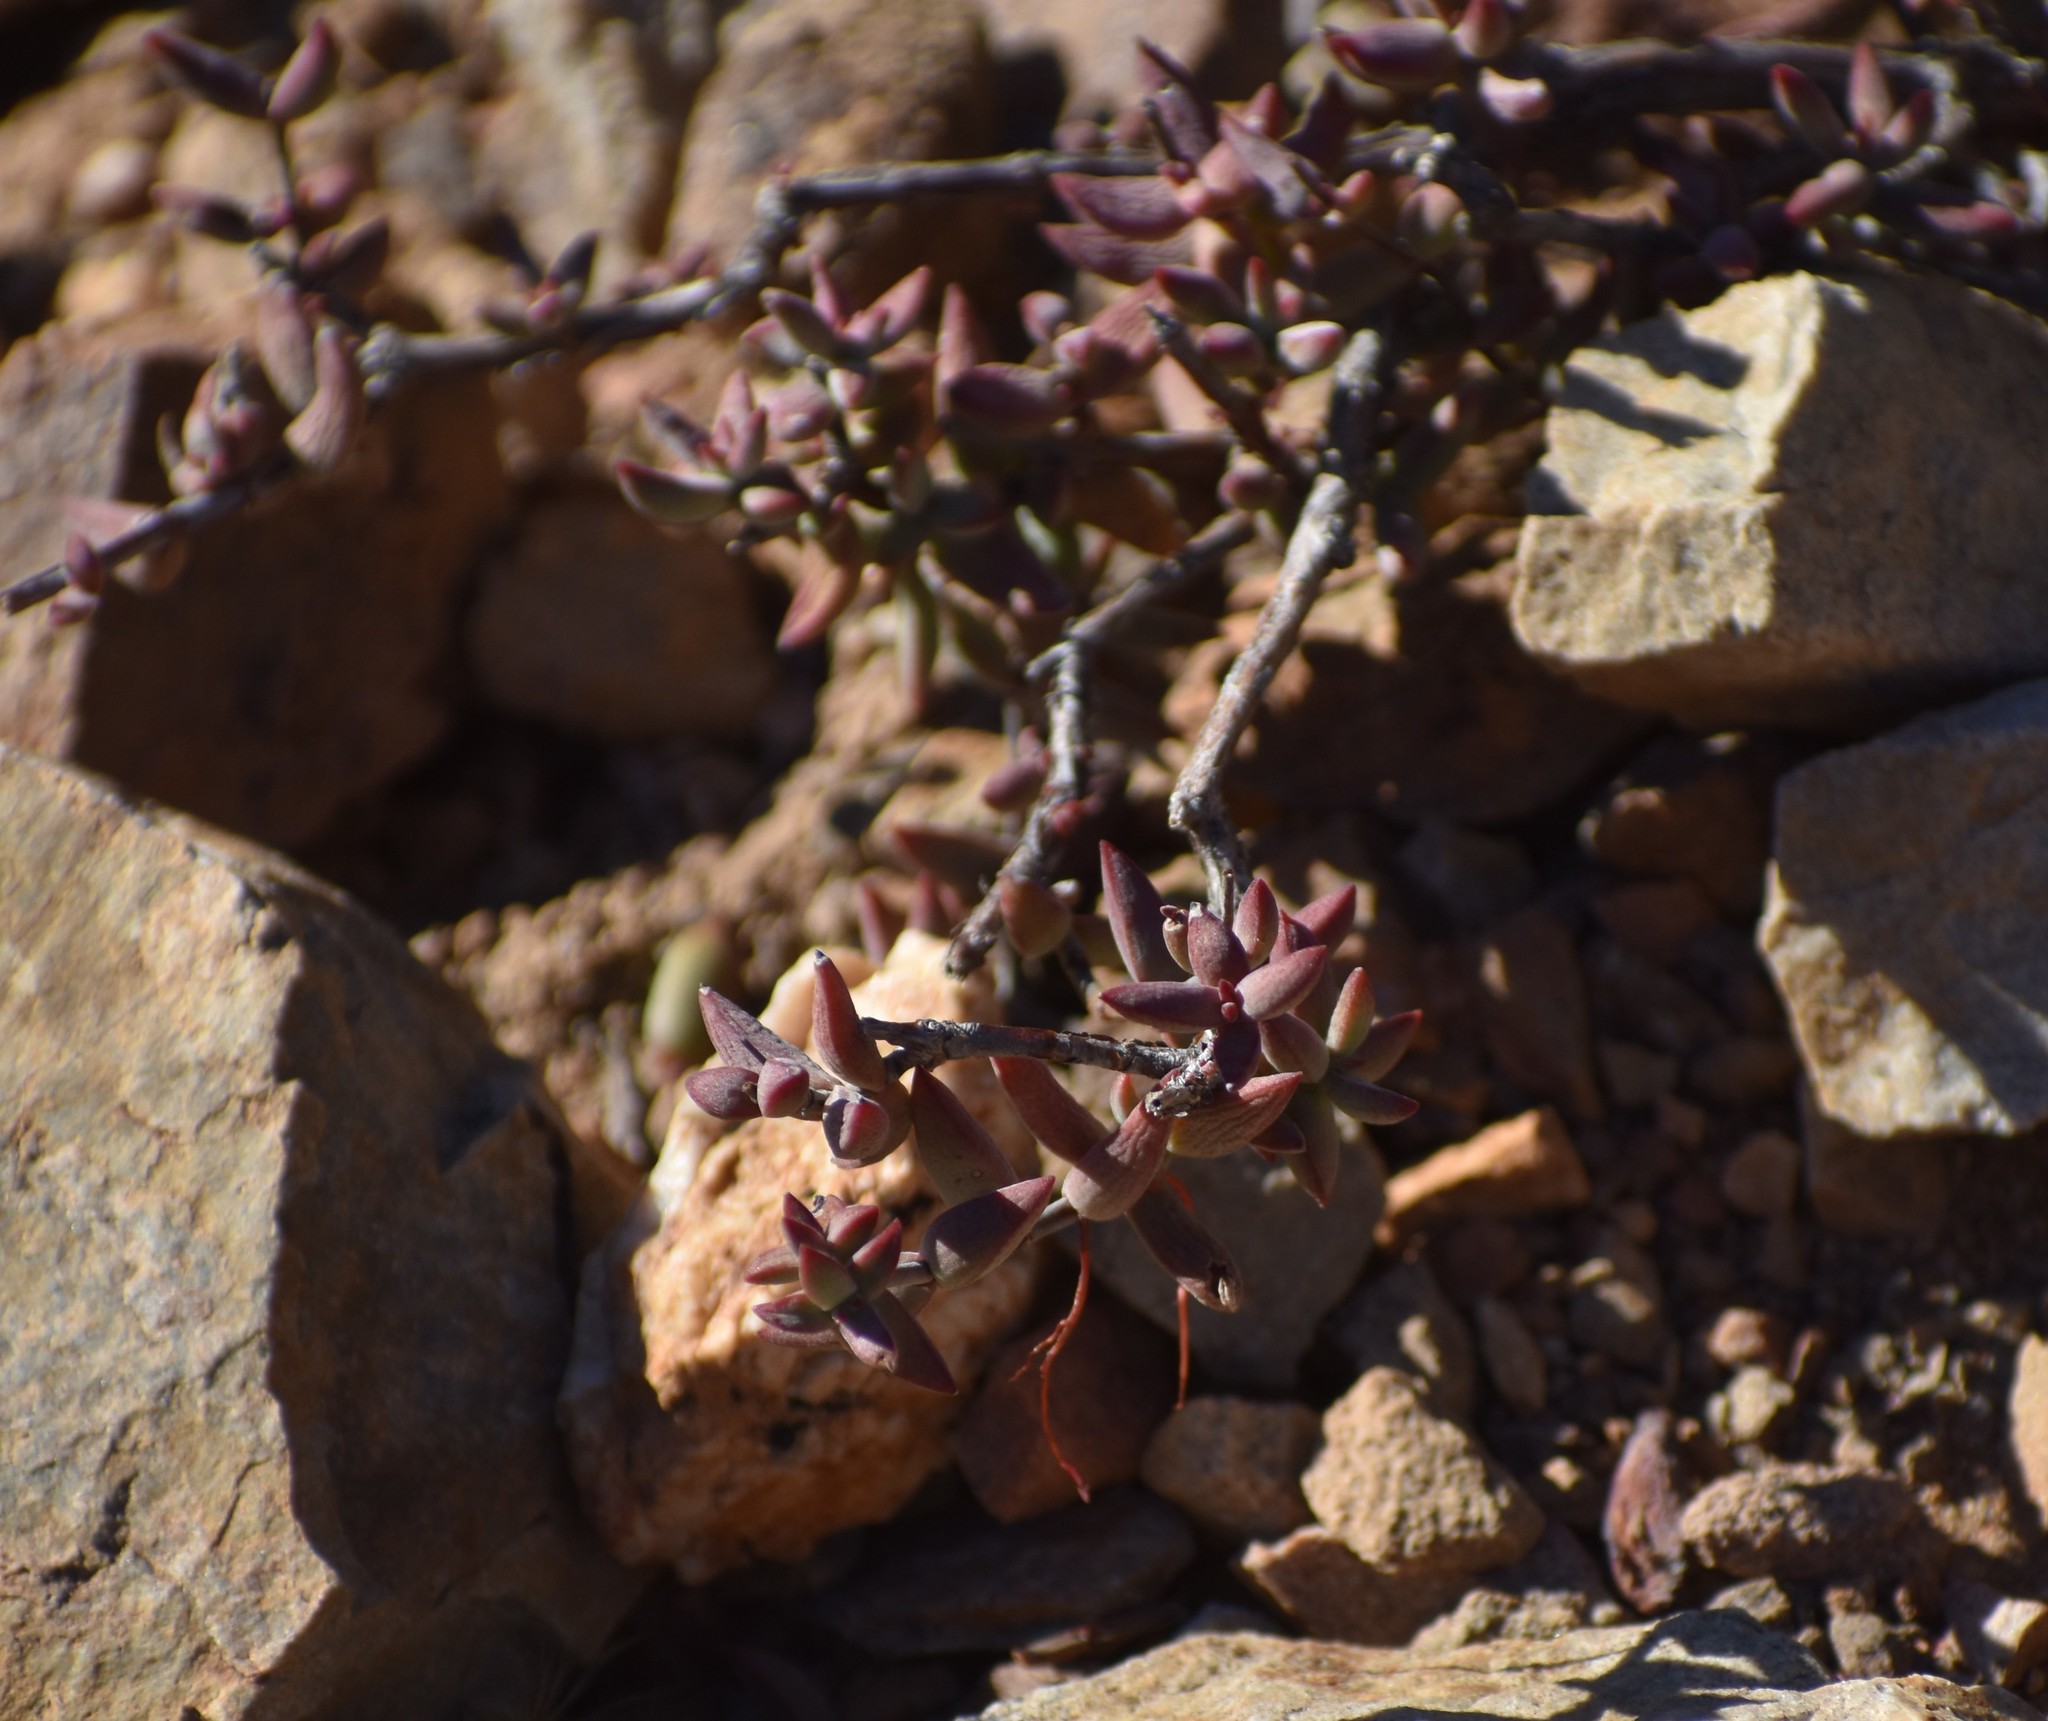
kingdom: Plantae
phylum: Tracheophyta
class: Magnoliopsida
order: Saxifragales
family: Crassulaceae
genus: Crassula
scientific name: Crassula subaphylla
